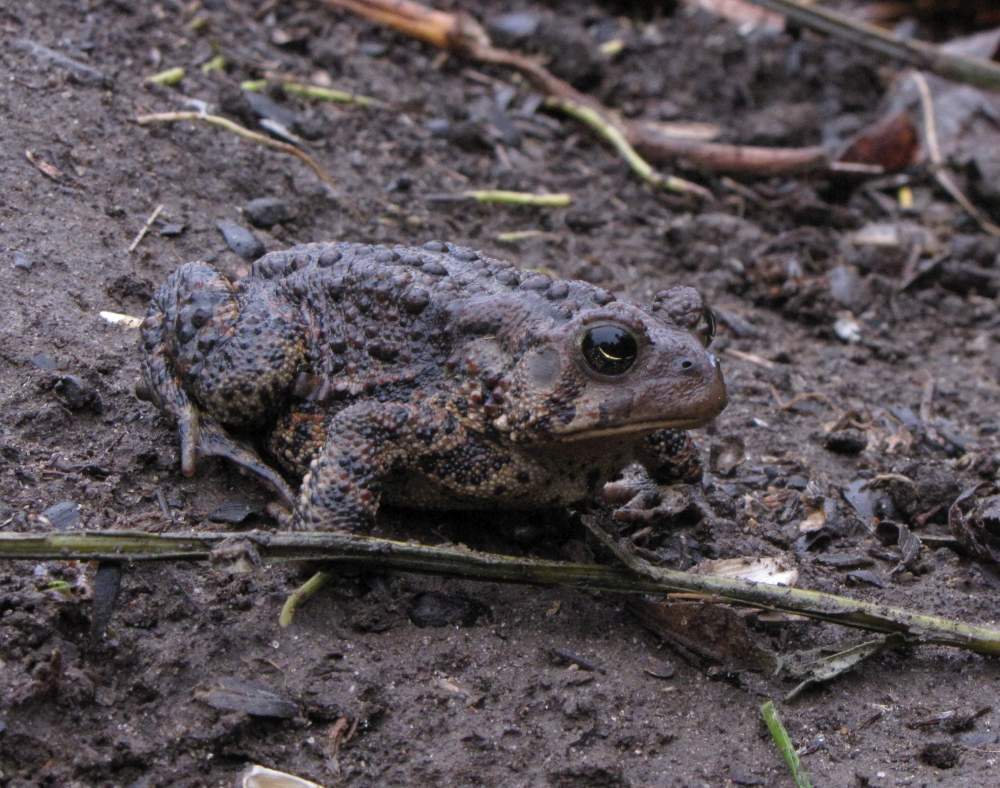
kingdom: Animalia
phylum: Chordata
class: Amphibia
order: Anura
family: Bufonidae
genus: Anaxyrus
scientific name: Anaxyrus americanus
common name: American toad
